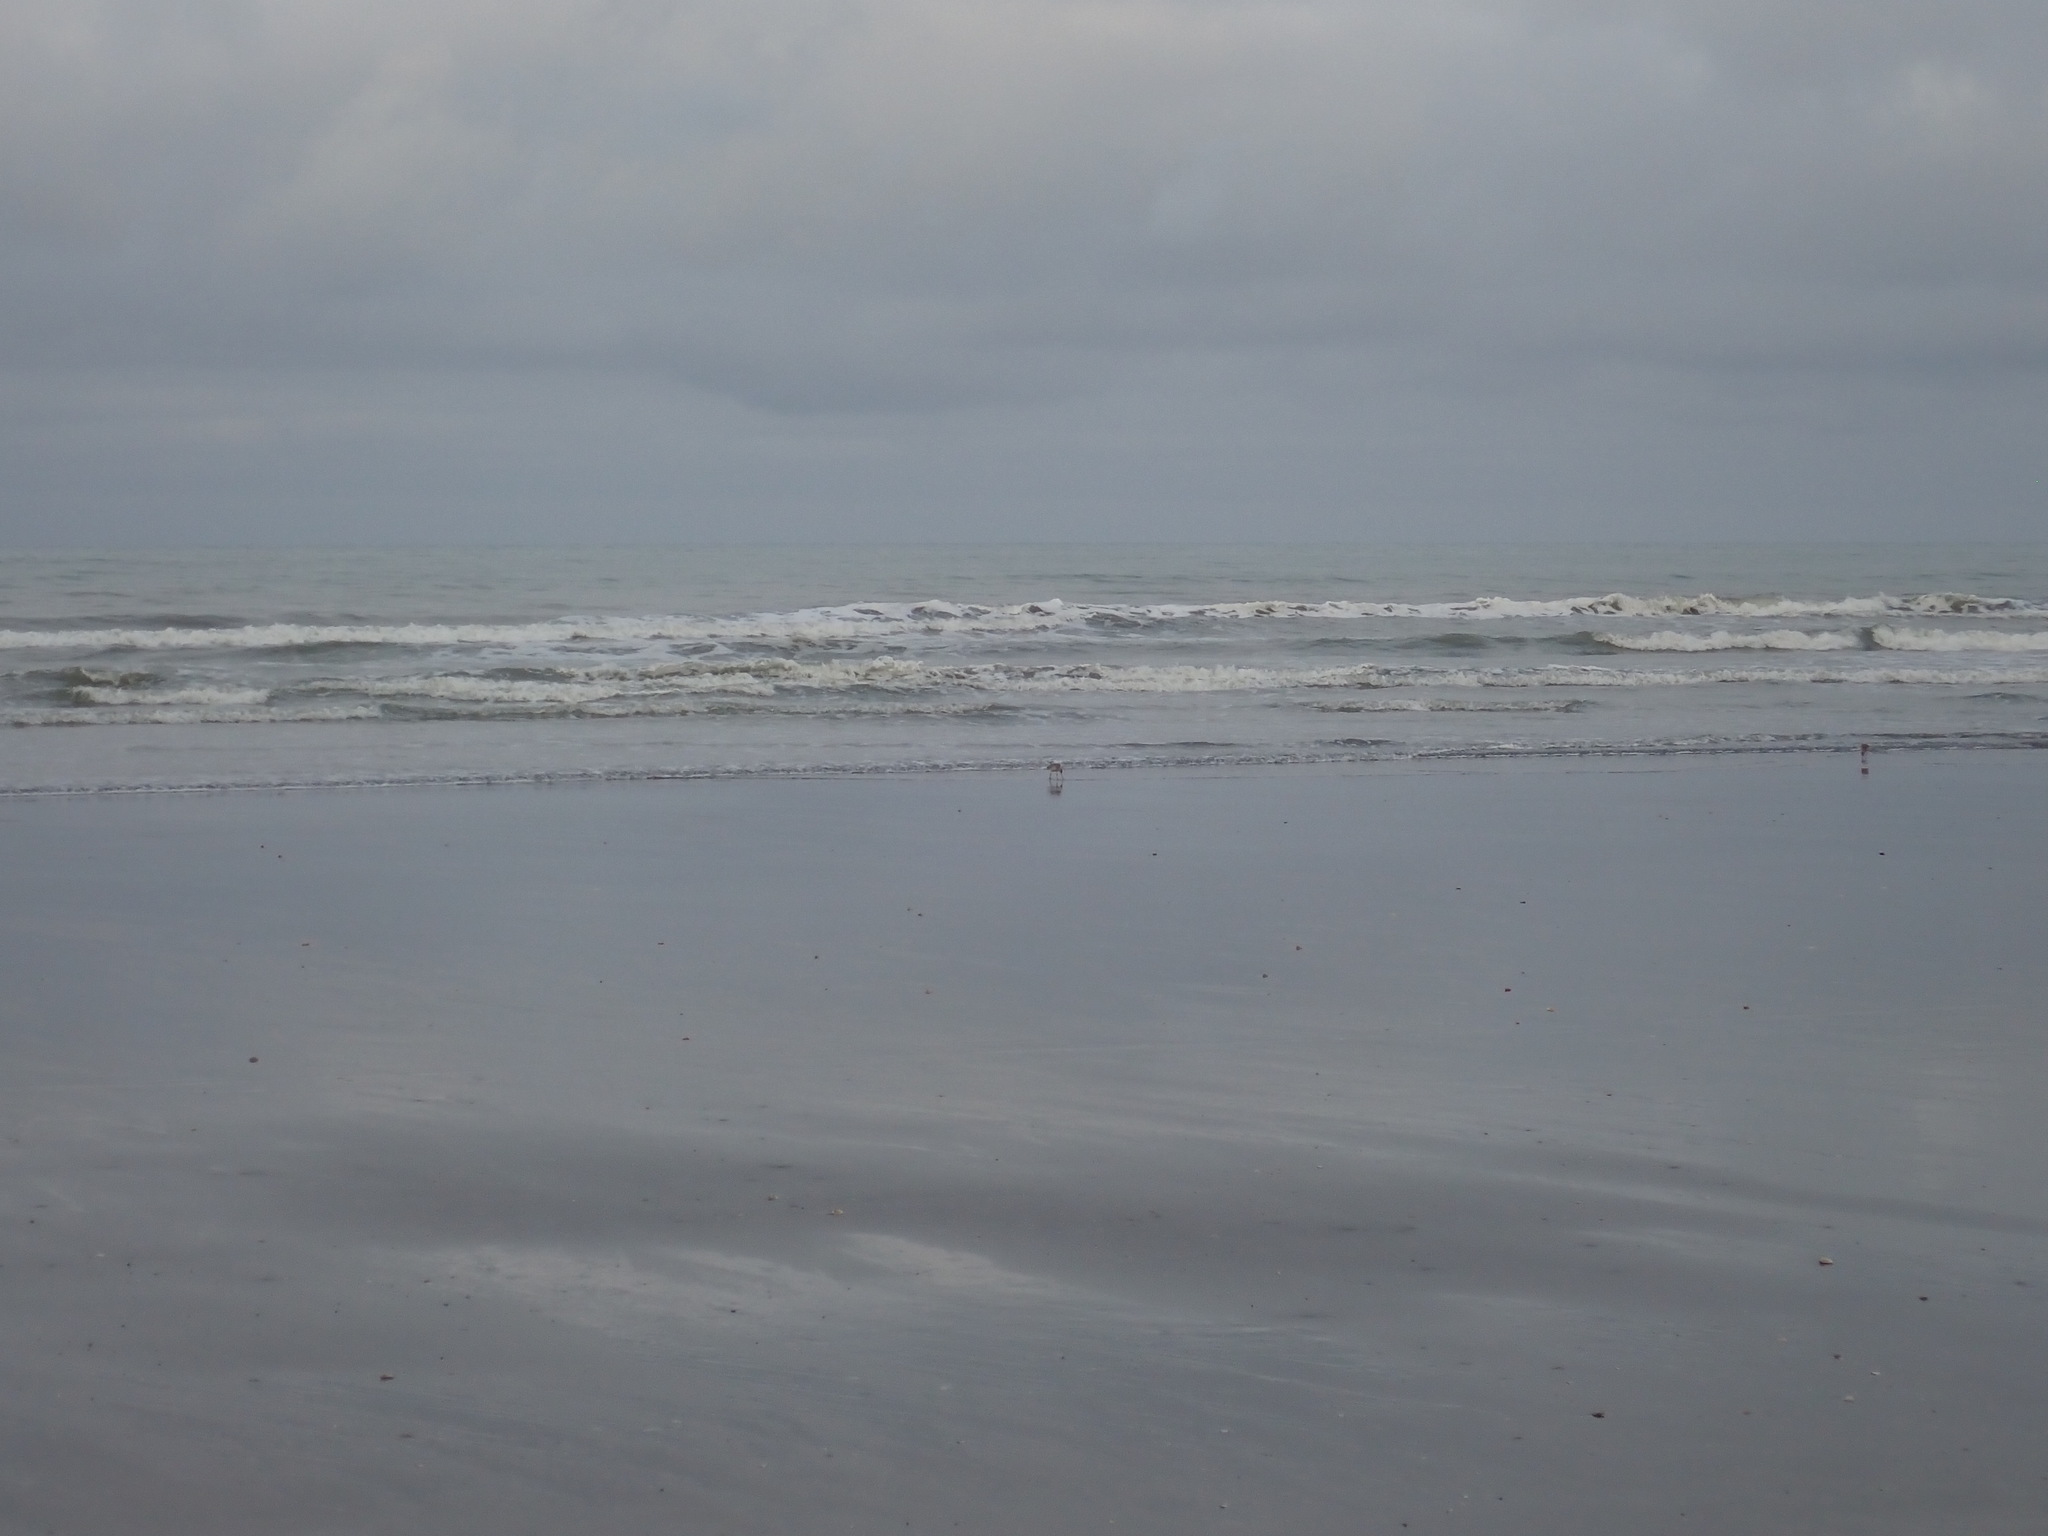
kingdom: Animalia
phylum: Chordata
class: Aves
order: Charadriiformes
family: Scolopacidae
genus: Limosa
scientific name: Limosa lapponica
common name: Bar-tailed godwit
